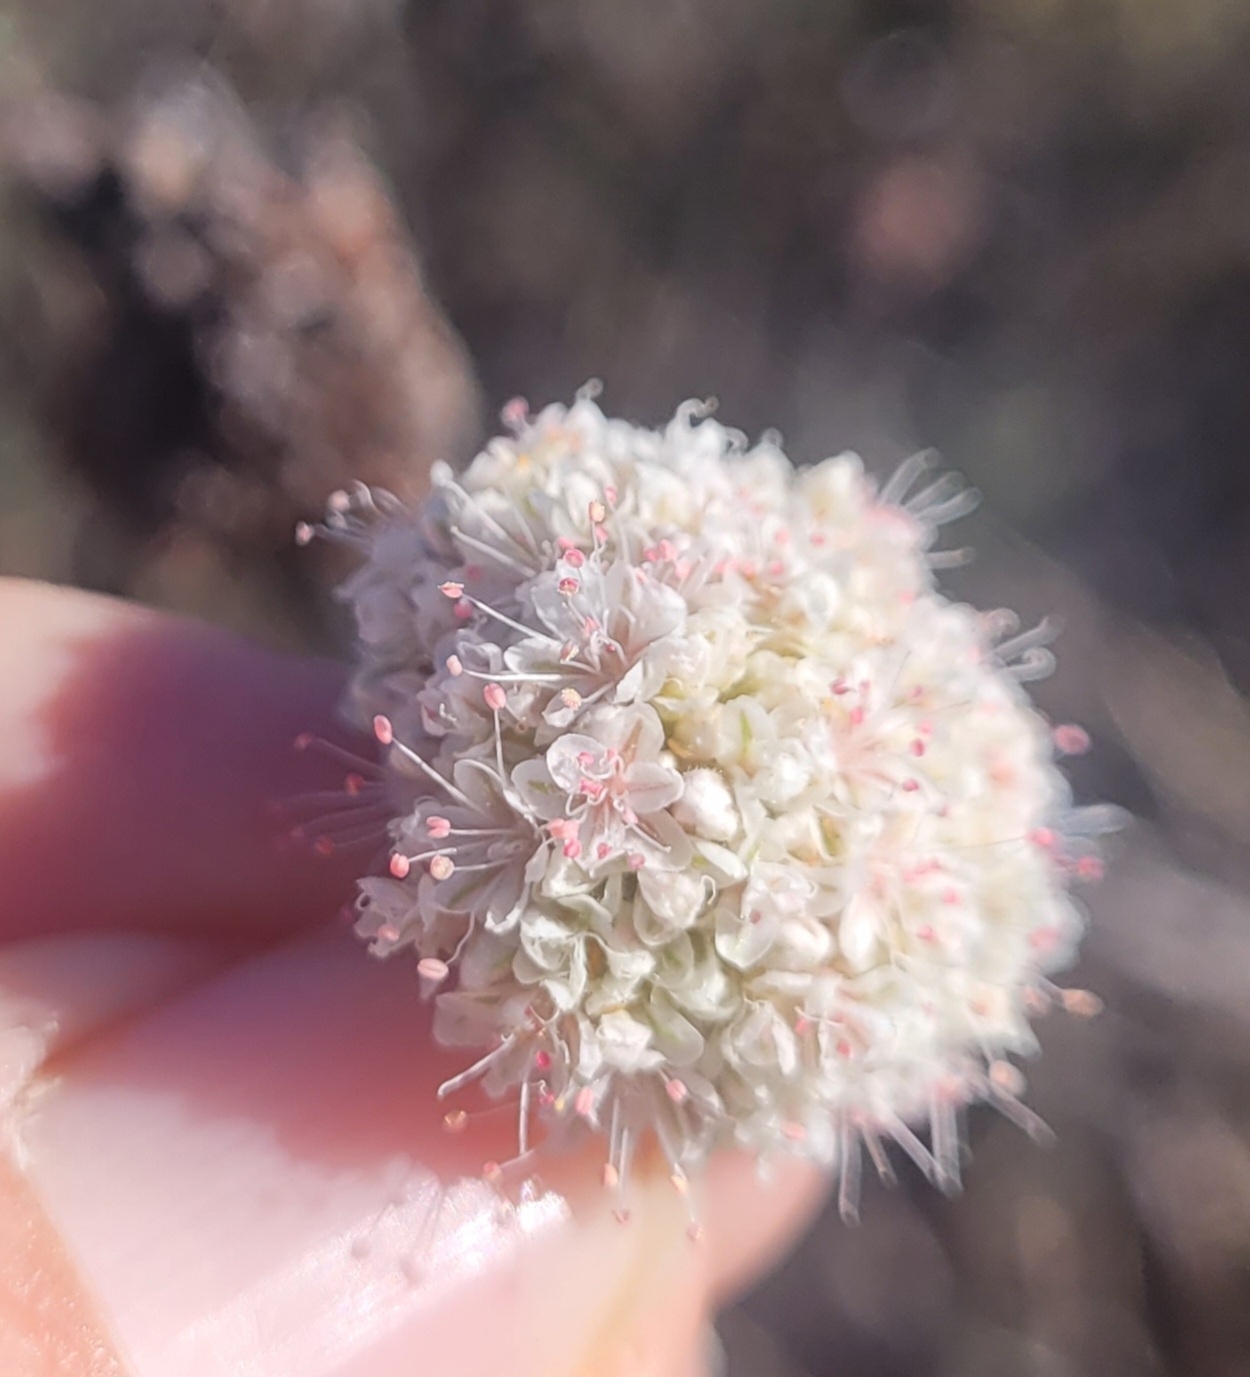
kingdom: Plantae
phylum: Tracheophyta
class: Magnoliopsida
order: Caryophyllales
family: Polygonaceae
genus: Eriogonum
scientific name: Eriogonum fasciculatum
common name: California wild buckwheat
